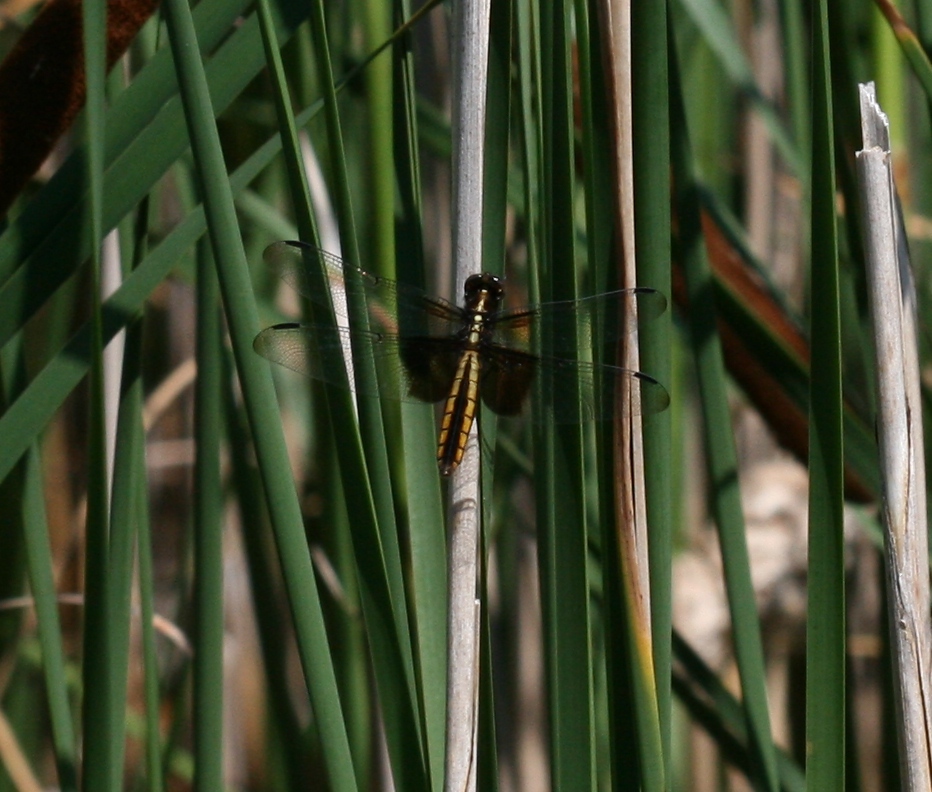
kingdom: Animalia
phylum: Arthropoda
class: Insecta
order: Odonata
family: Libellulidae
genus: Libellula
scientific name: Libellula luctuosa
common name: Widow skimmer
